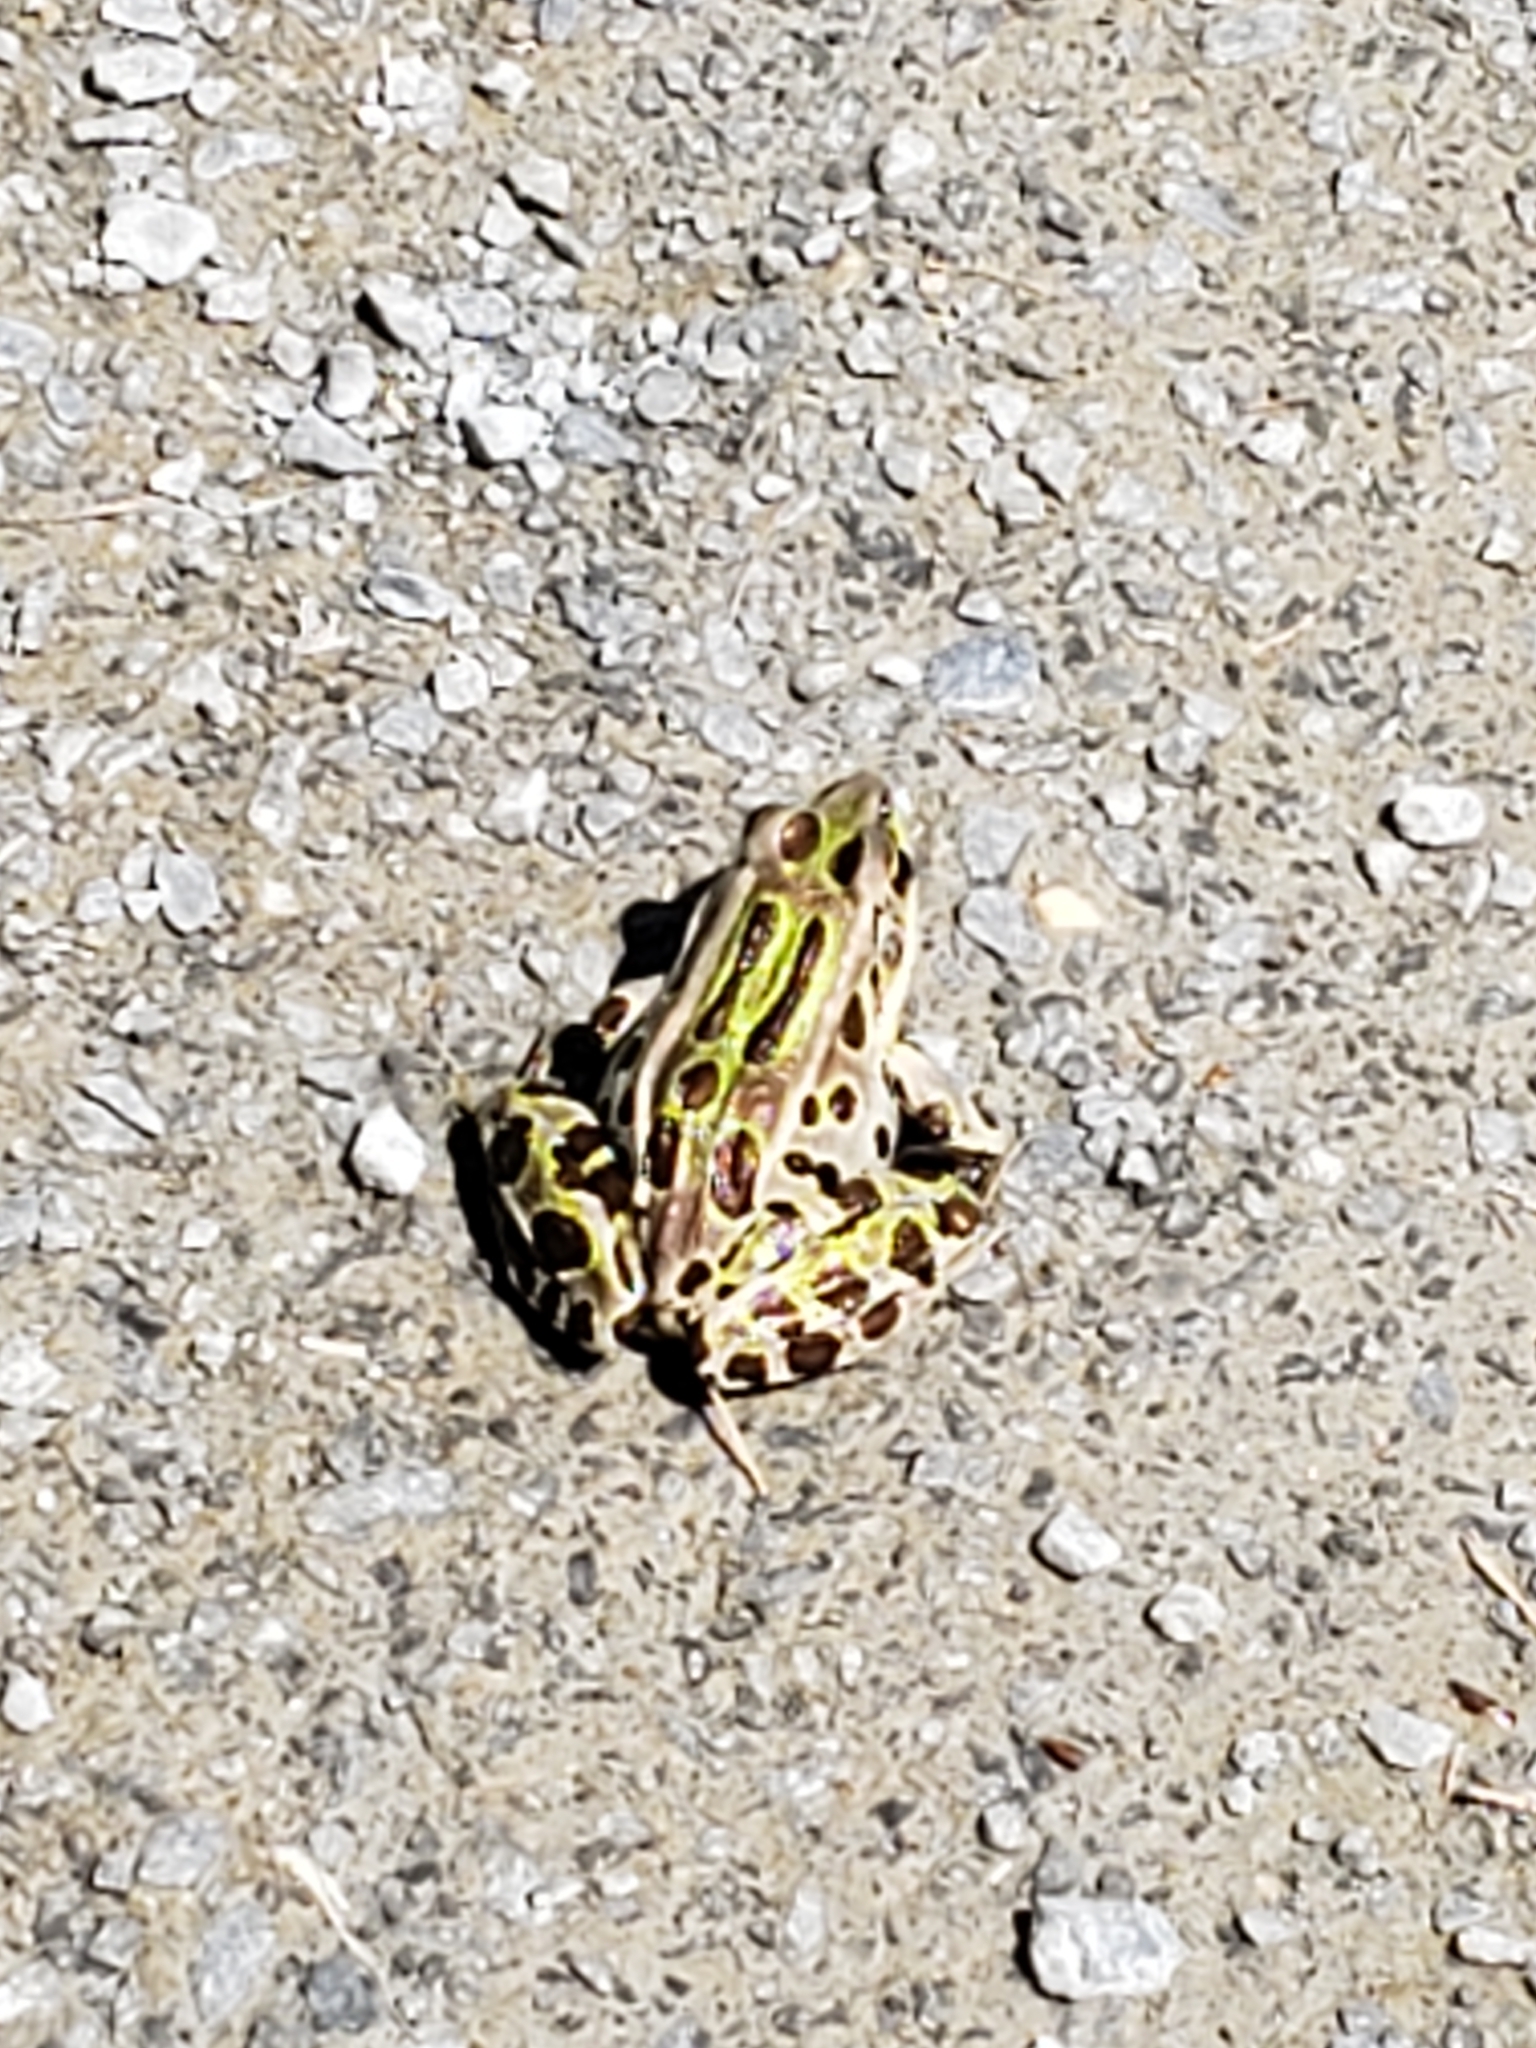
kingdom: Animalia
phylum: Chordata
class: Amphibia
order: Anura
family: Ranidae
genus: Lithobates
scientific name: Lithobates pipiens
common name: Northern leopard frog
